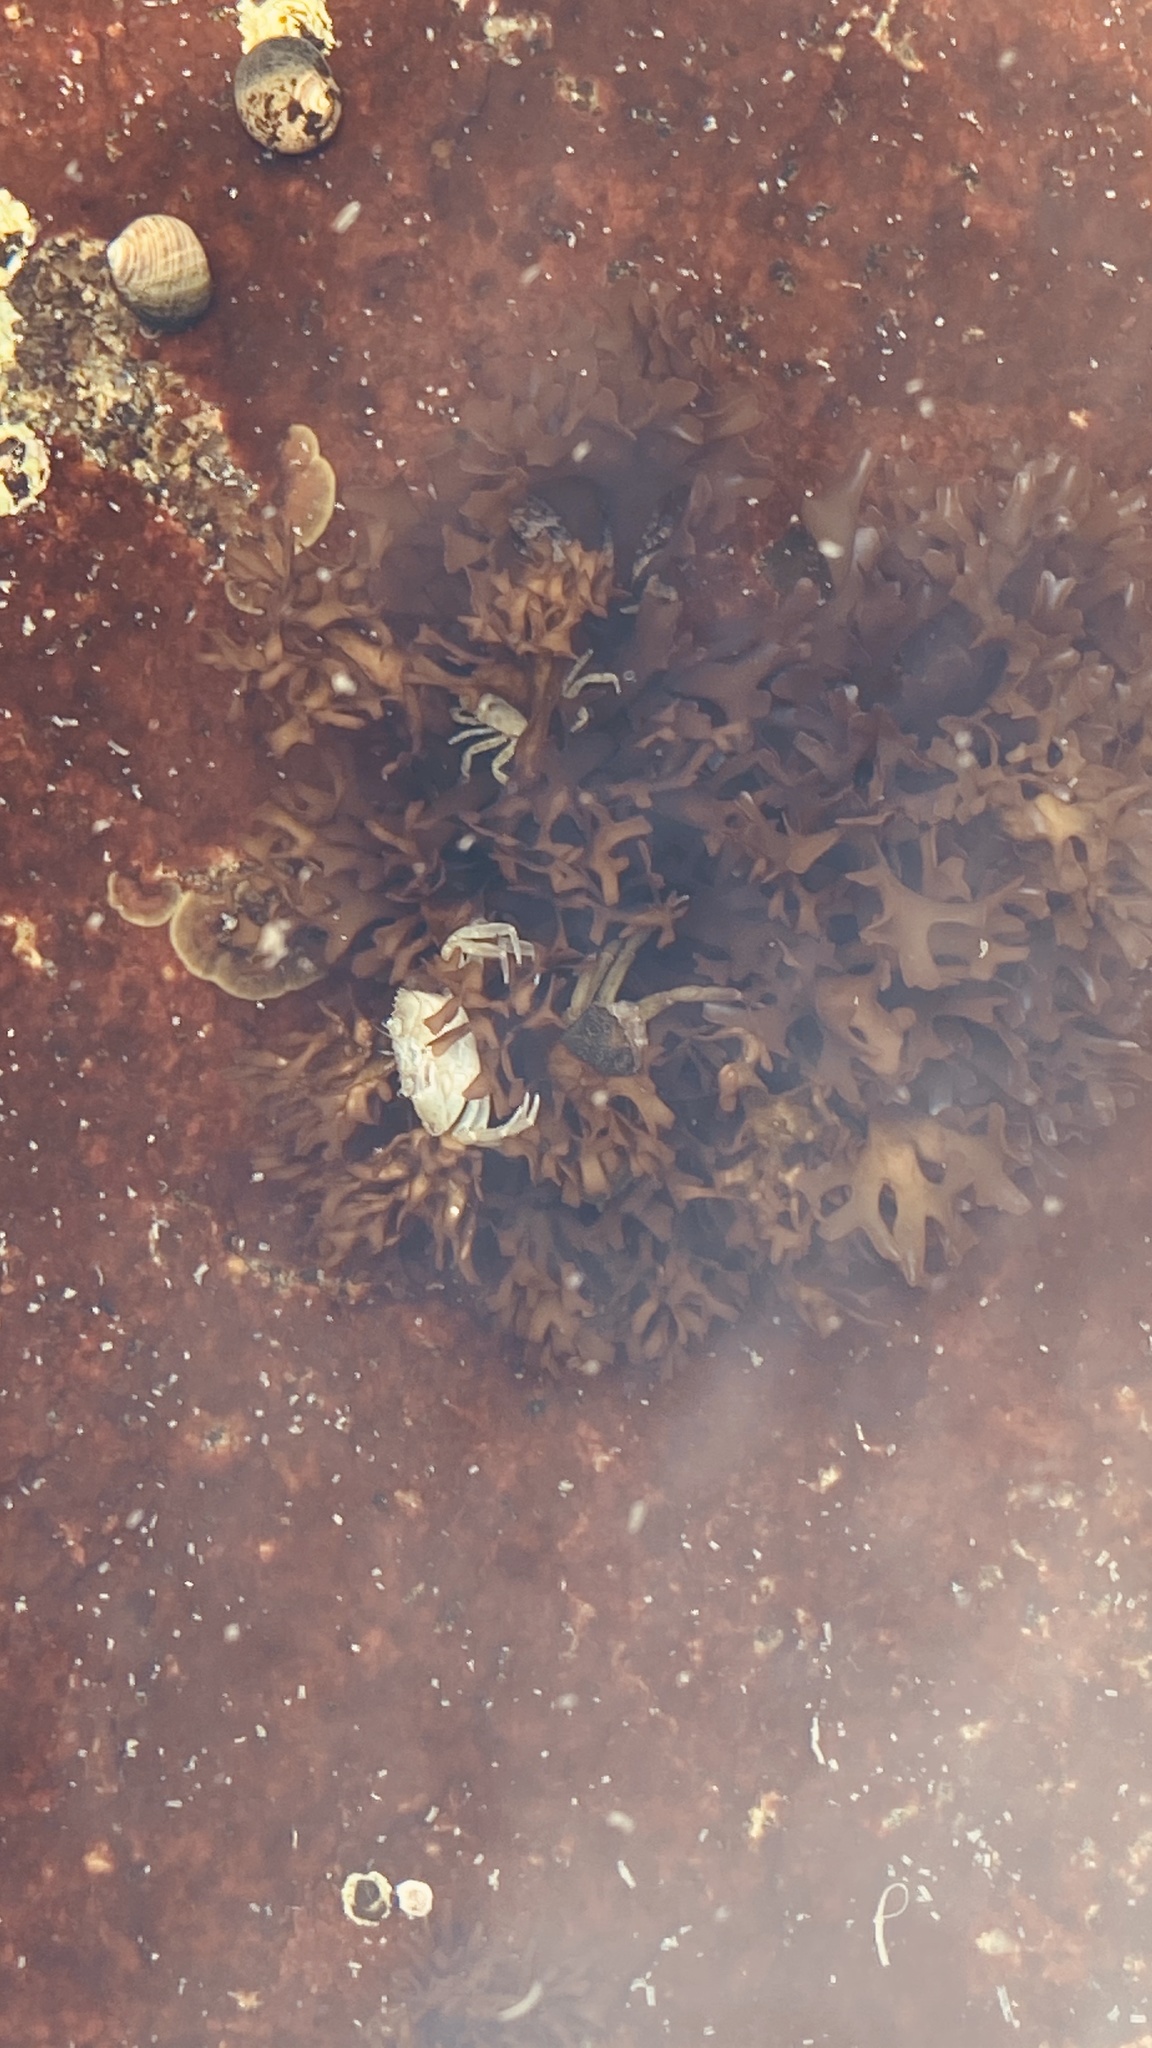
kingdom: Plantae
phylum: Rhodophyta
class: Florideophyceae
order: Gigartinales
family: Gigartinaceae
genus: Chondrus
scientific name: Chondrus crispus
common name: Carrageen
